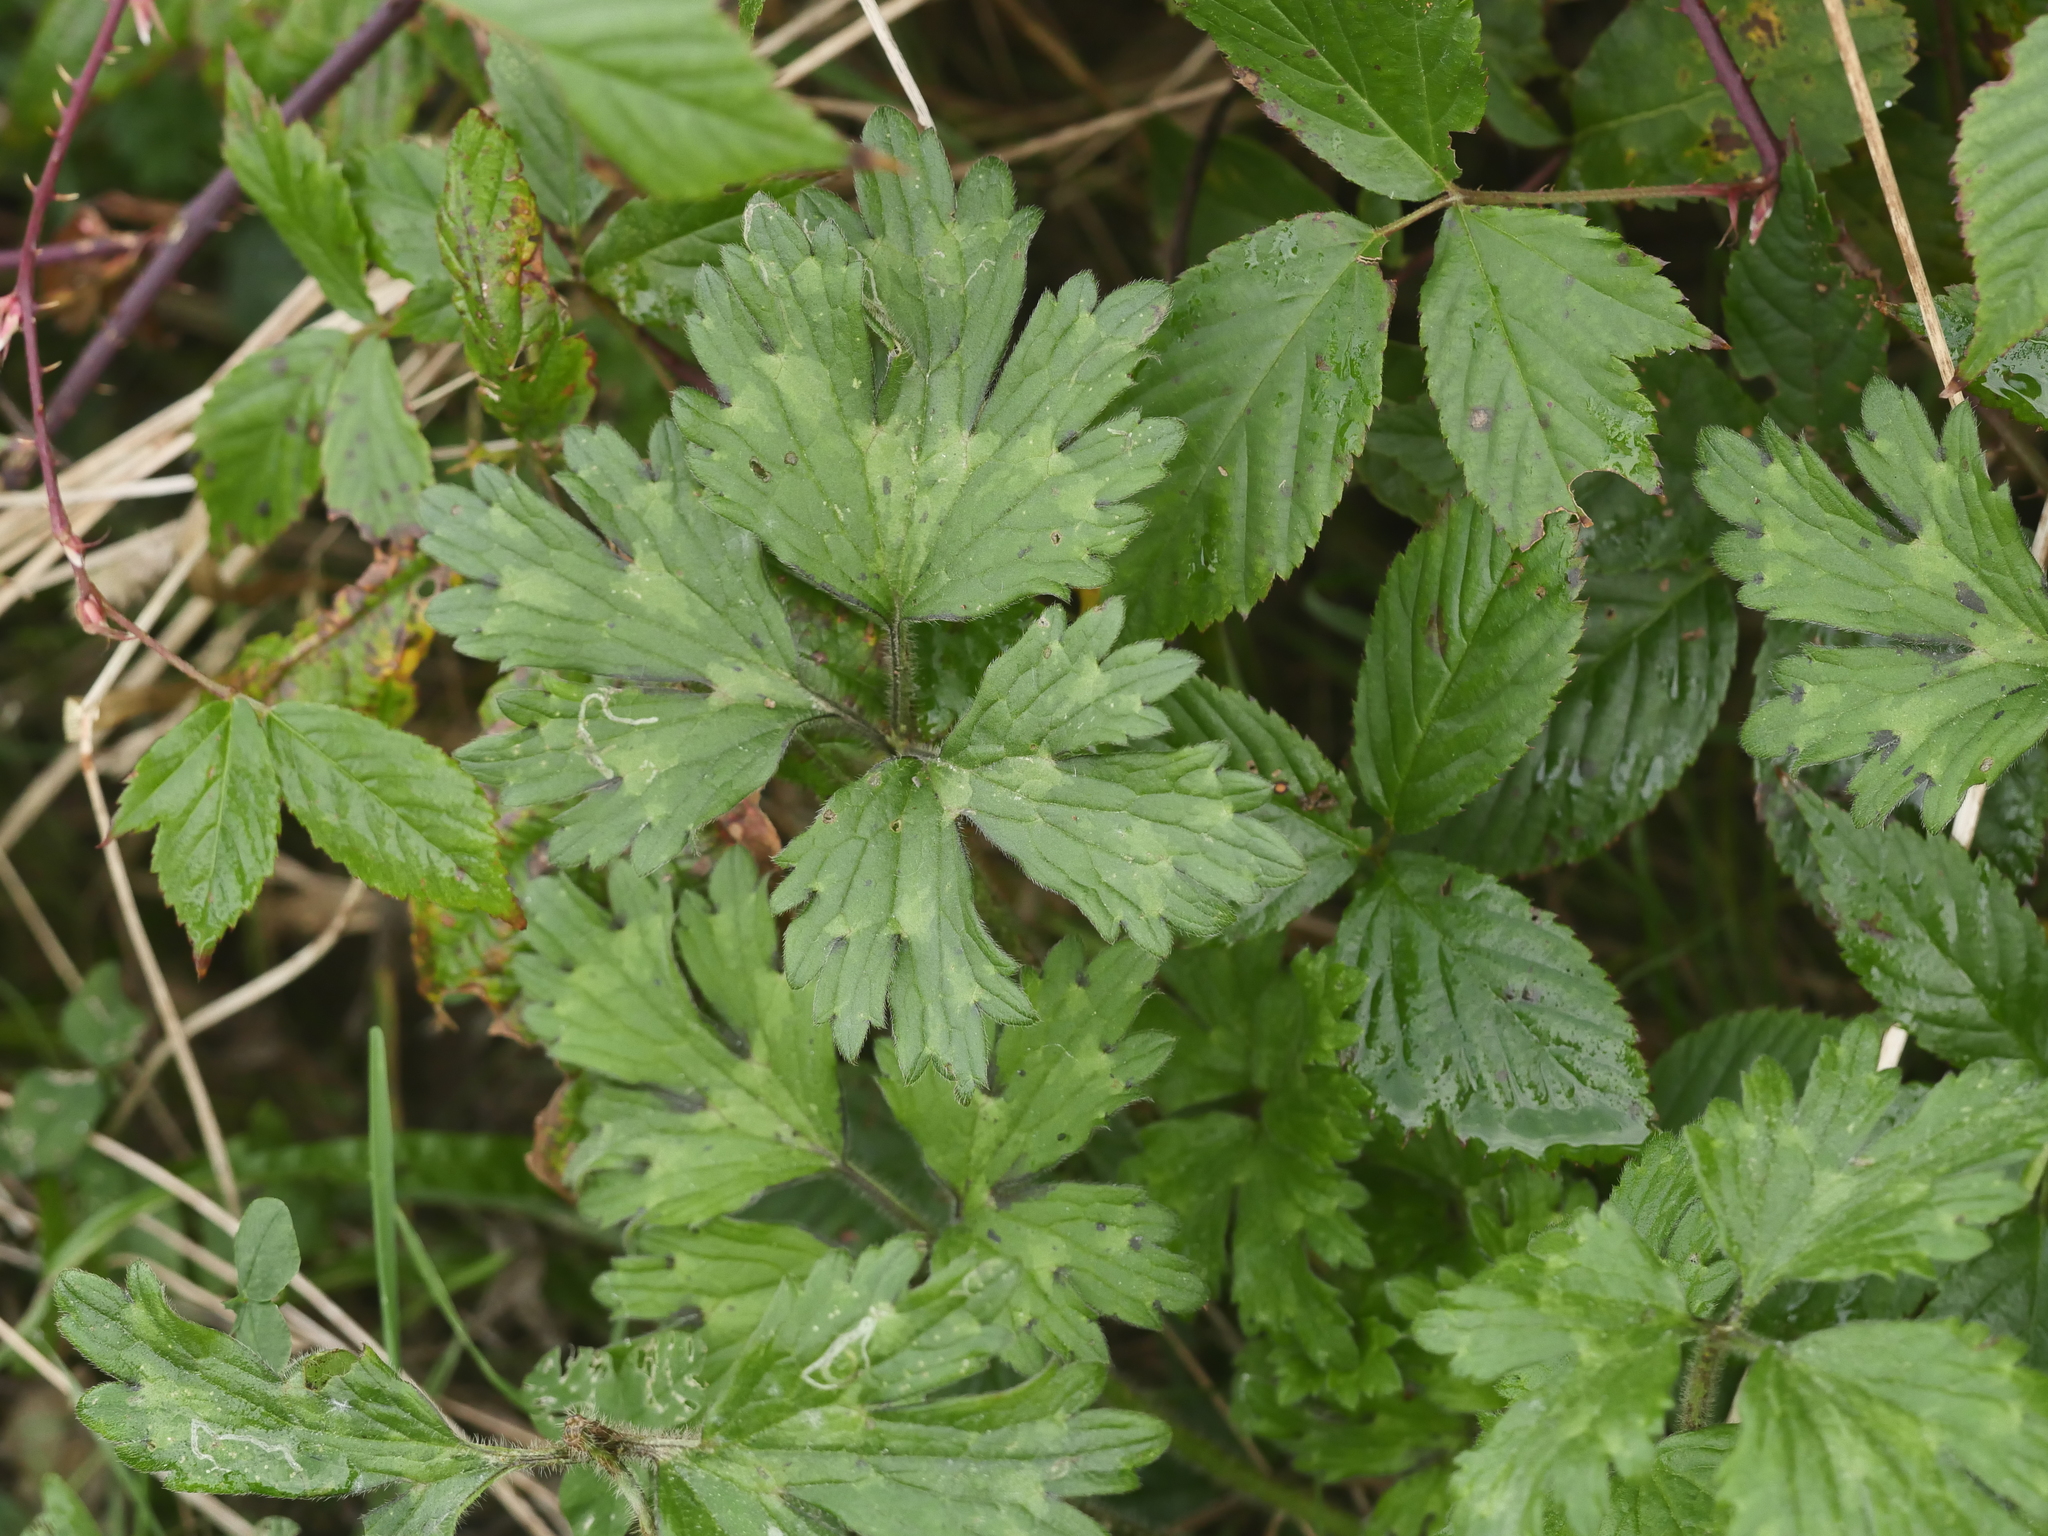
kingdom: Plantae
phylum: Tracheophyta
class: Magnoliopsida
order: Ranunculales
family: Ranunculaceae
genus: Ranunculus
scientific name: Ranunculus repens
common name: Creeping buttercup
